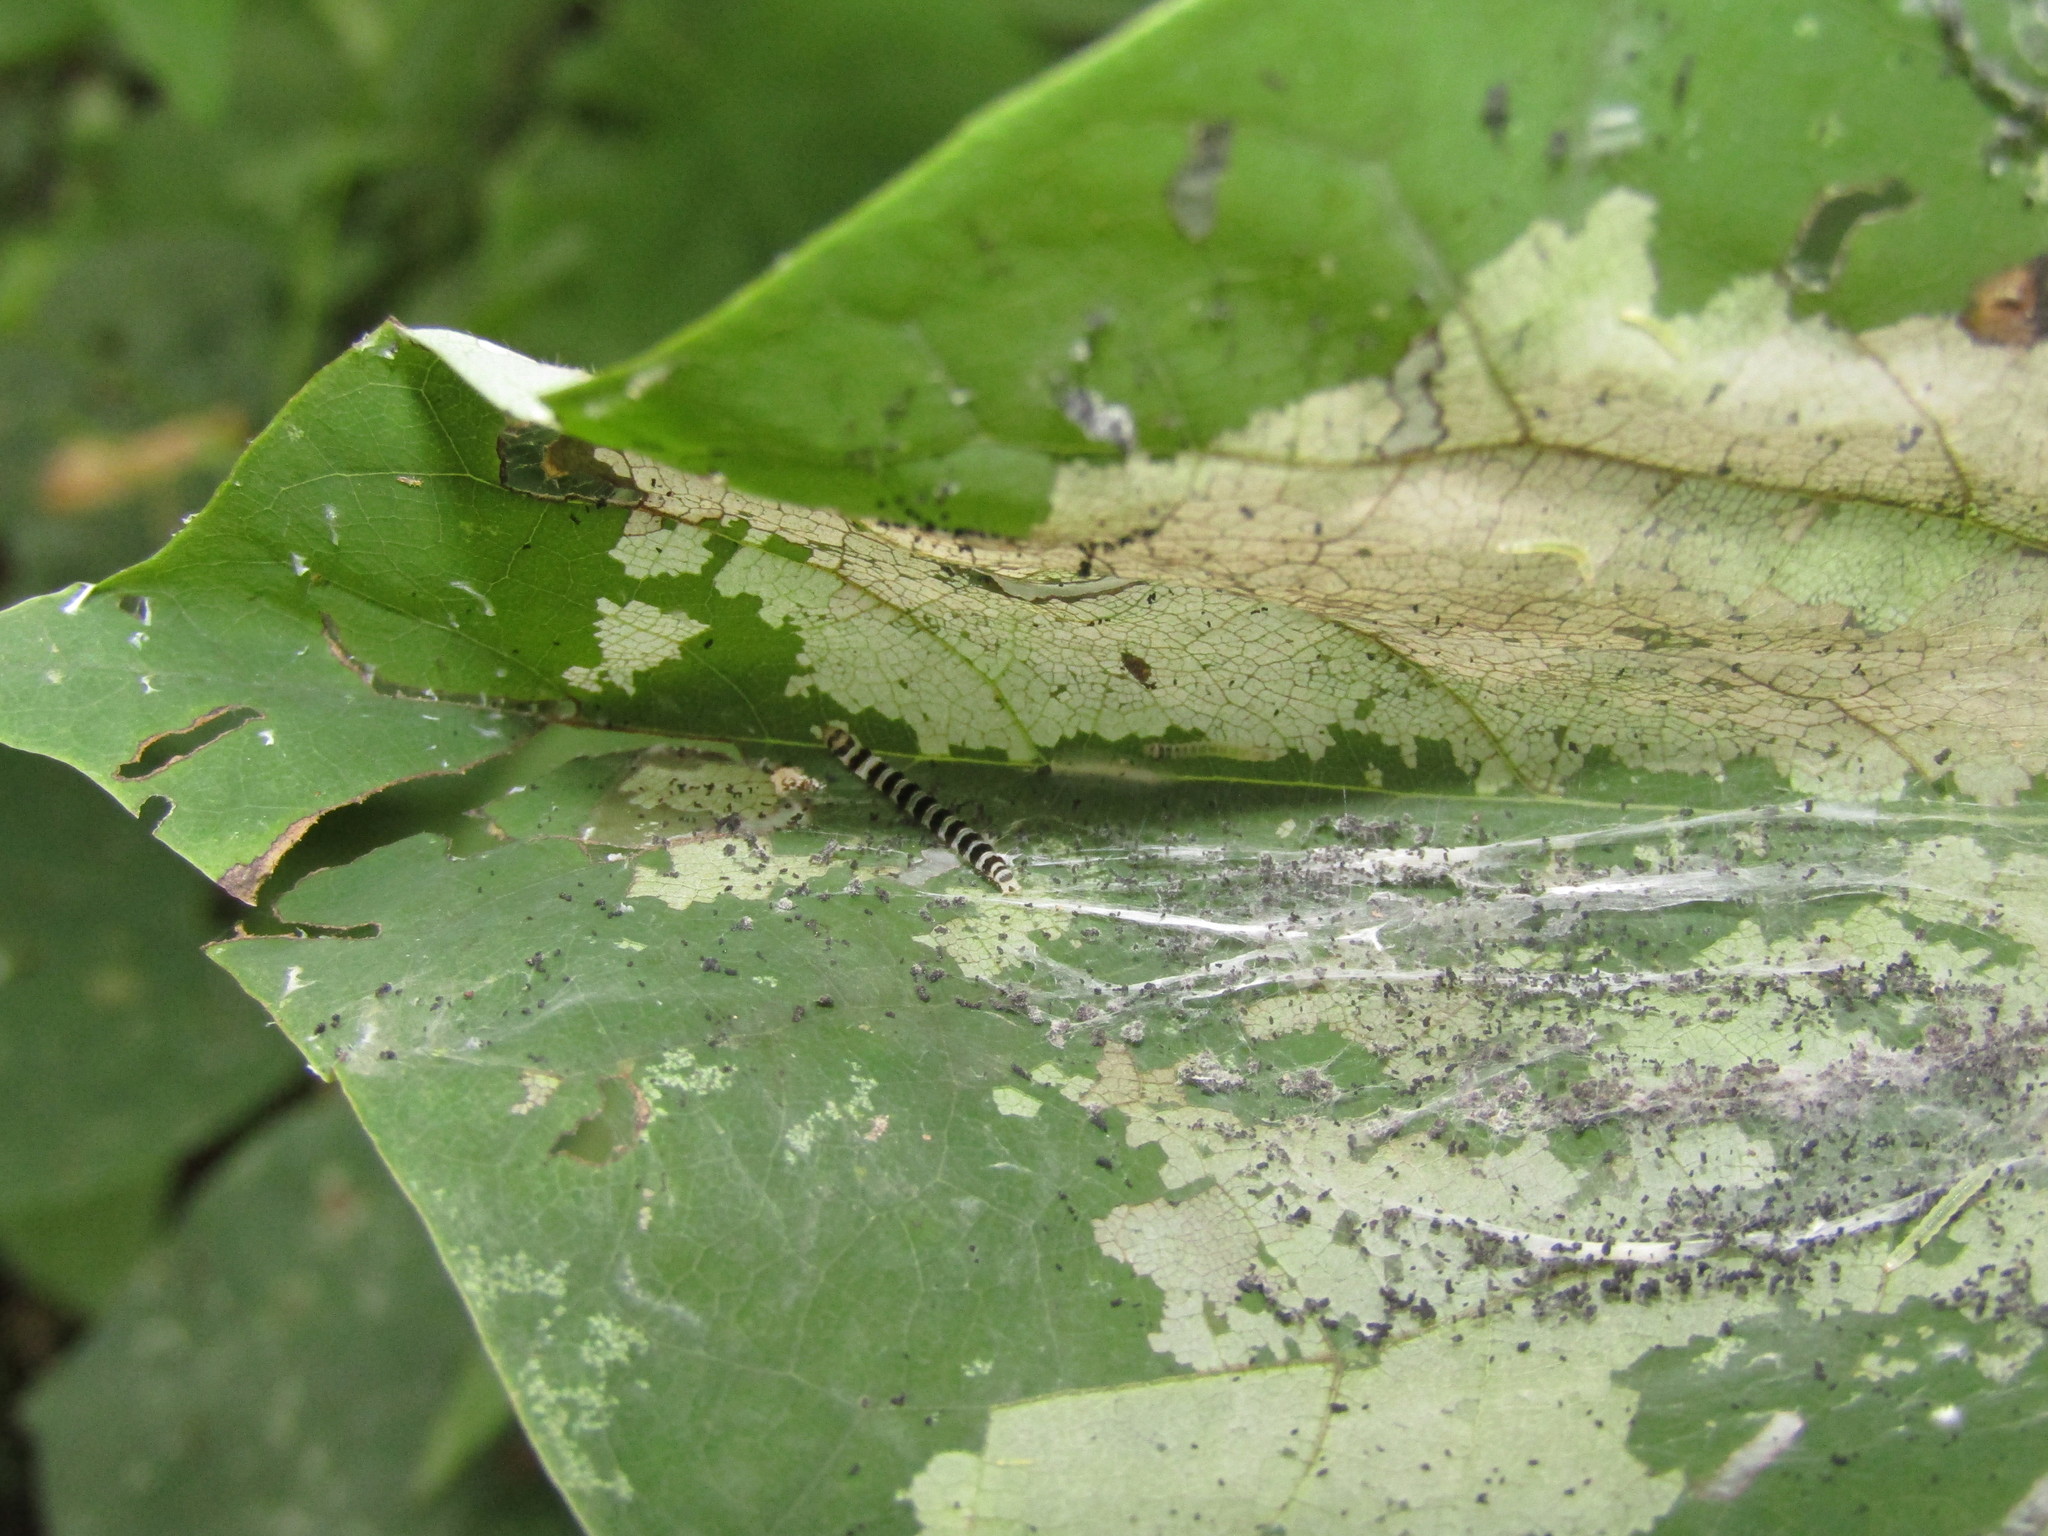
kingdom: Animalia
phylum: Arthropoda
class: Insecta
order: Lepidoptera
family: Gelechiidae
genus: Fascista
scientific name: Fascista cercerisella
